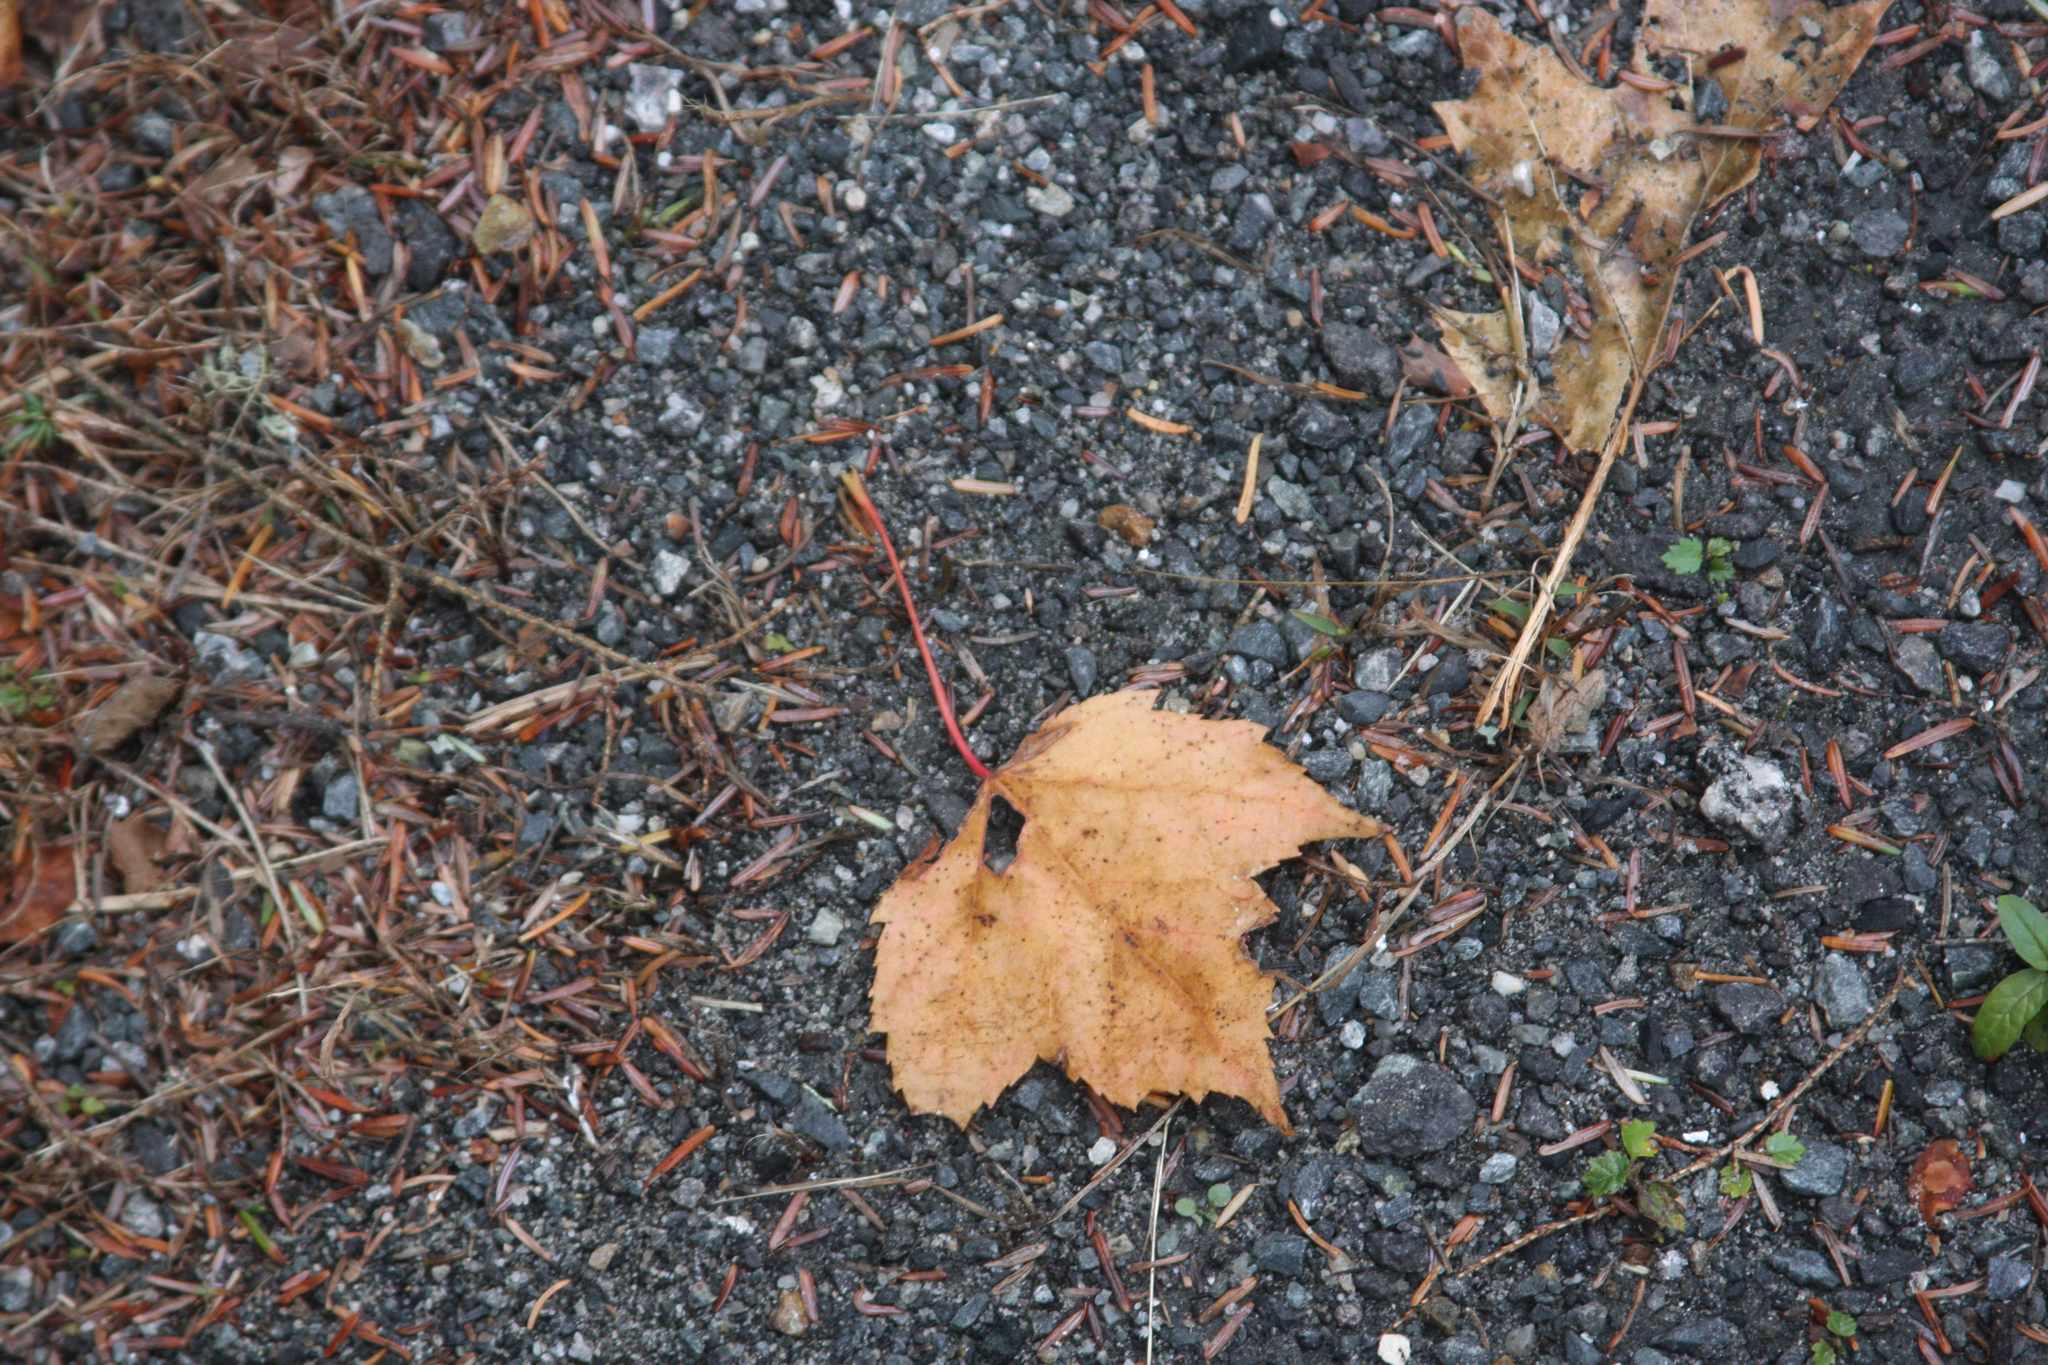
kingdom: Plantae
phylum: Tracheophyta
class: Magnoliopsida
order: Sapindales
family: Sapindaceae
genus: Acer
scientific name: Acer rubrum
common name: Red maple
